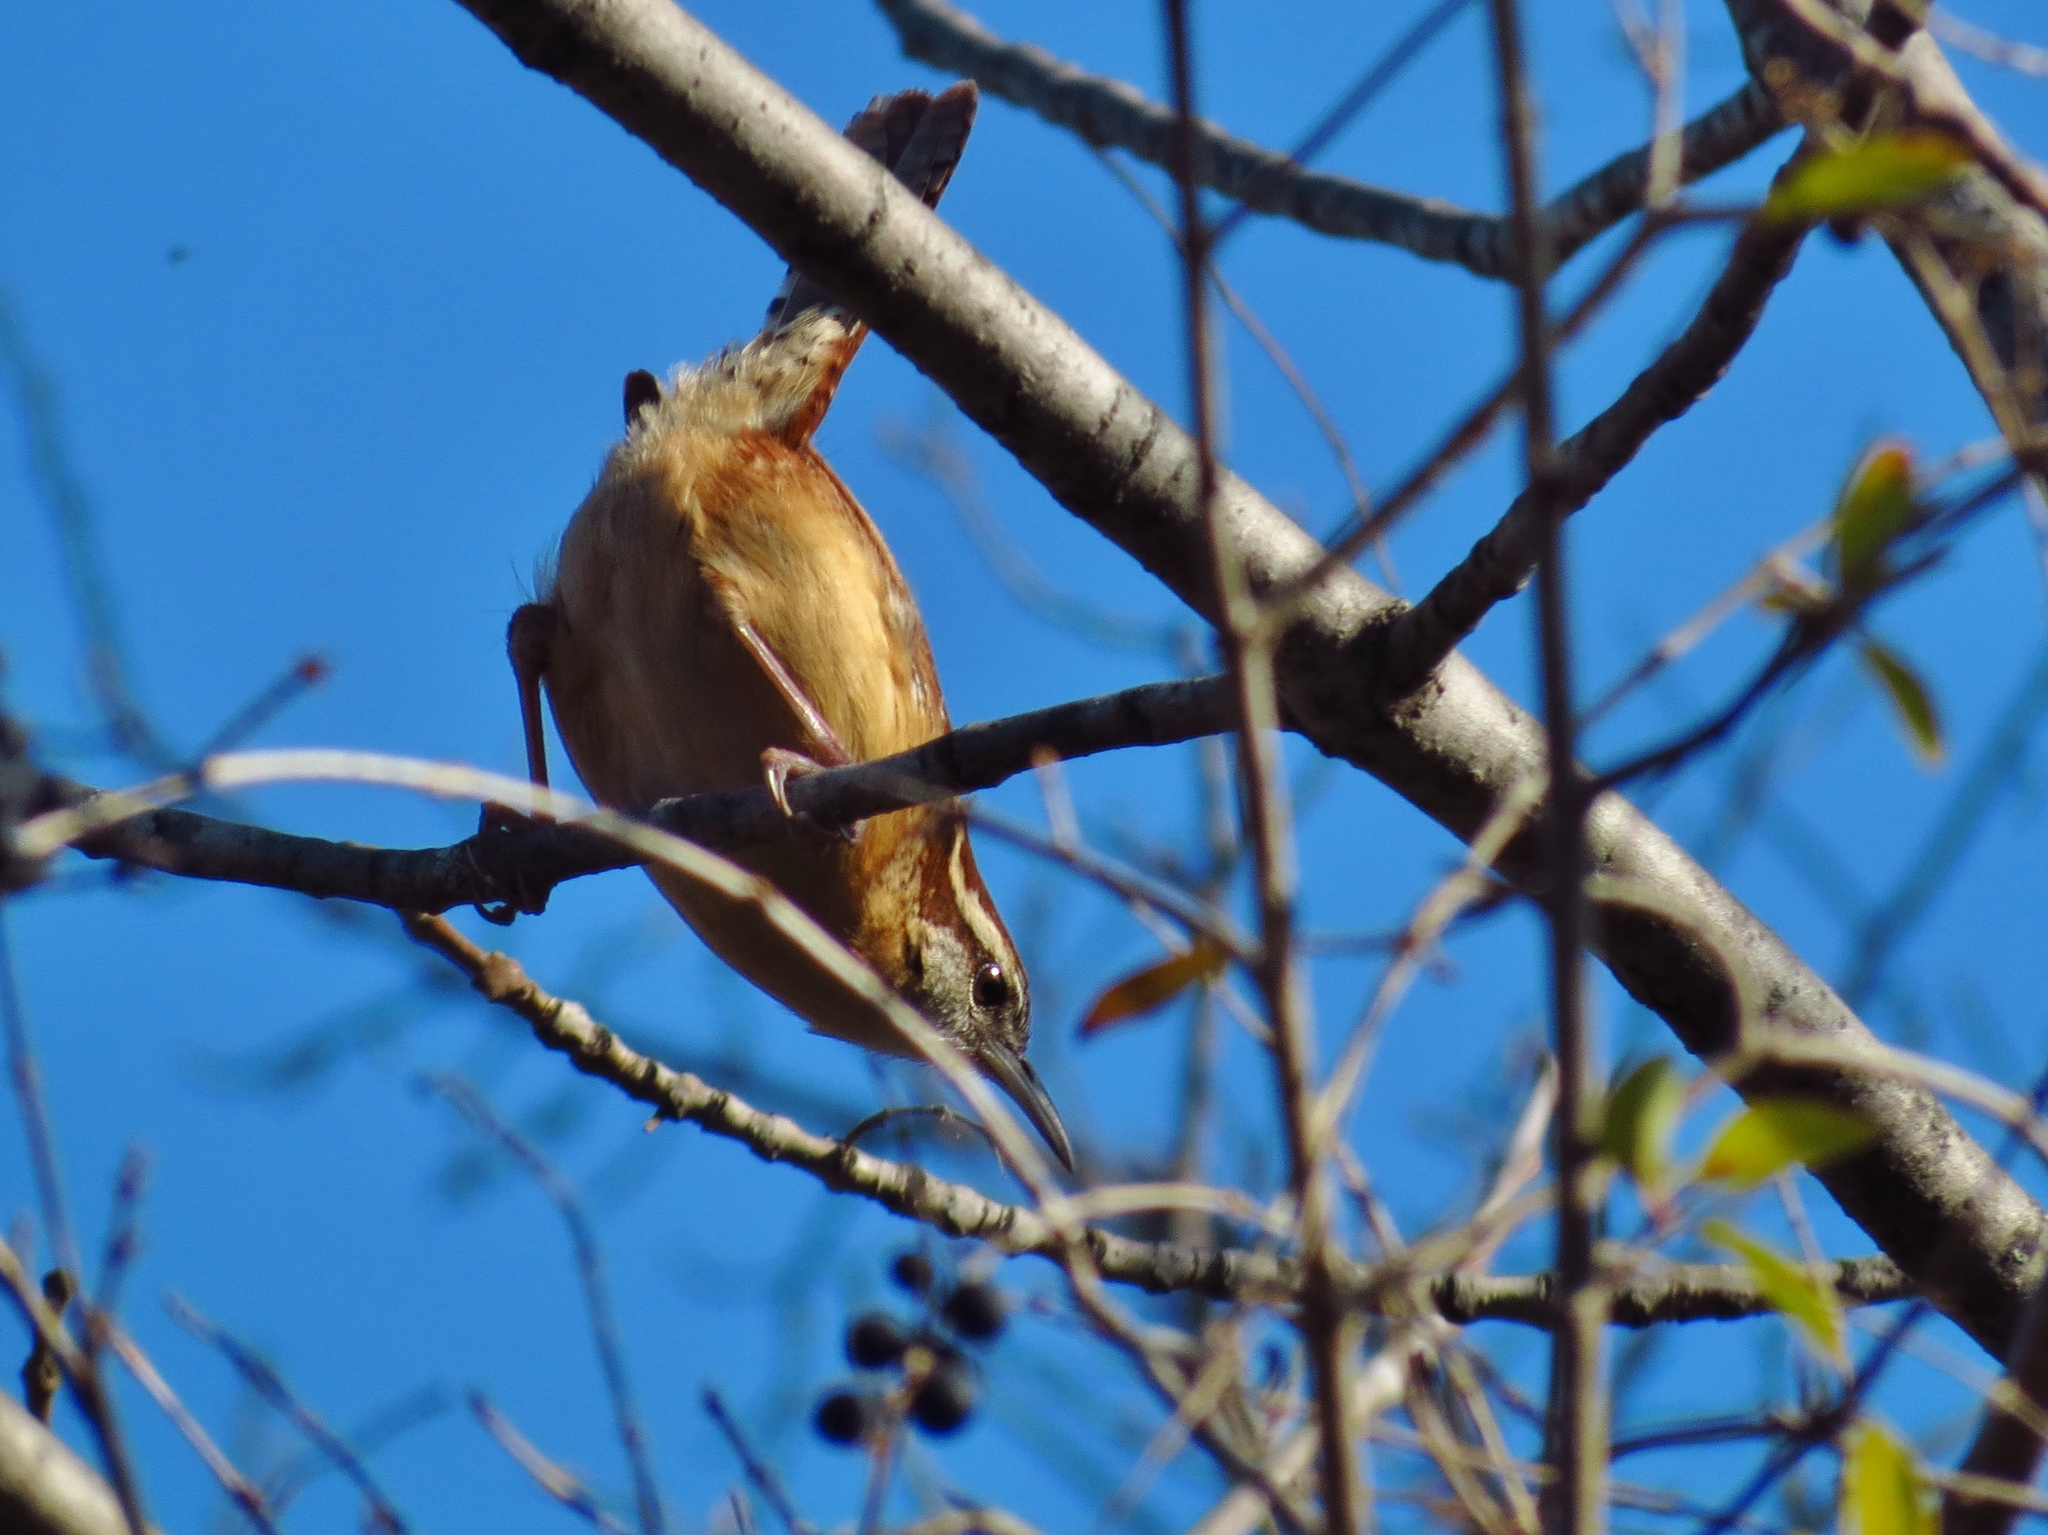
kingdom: Animalia
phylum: Chordata
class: Aves
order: Passeriformes
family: Troglodytidae
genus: Thryothorus
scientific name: Thryothorus ludovicianus
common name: Carolina wren
